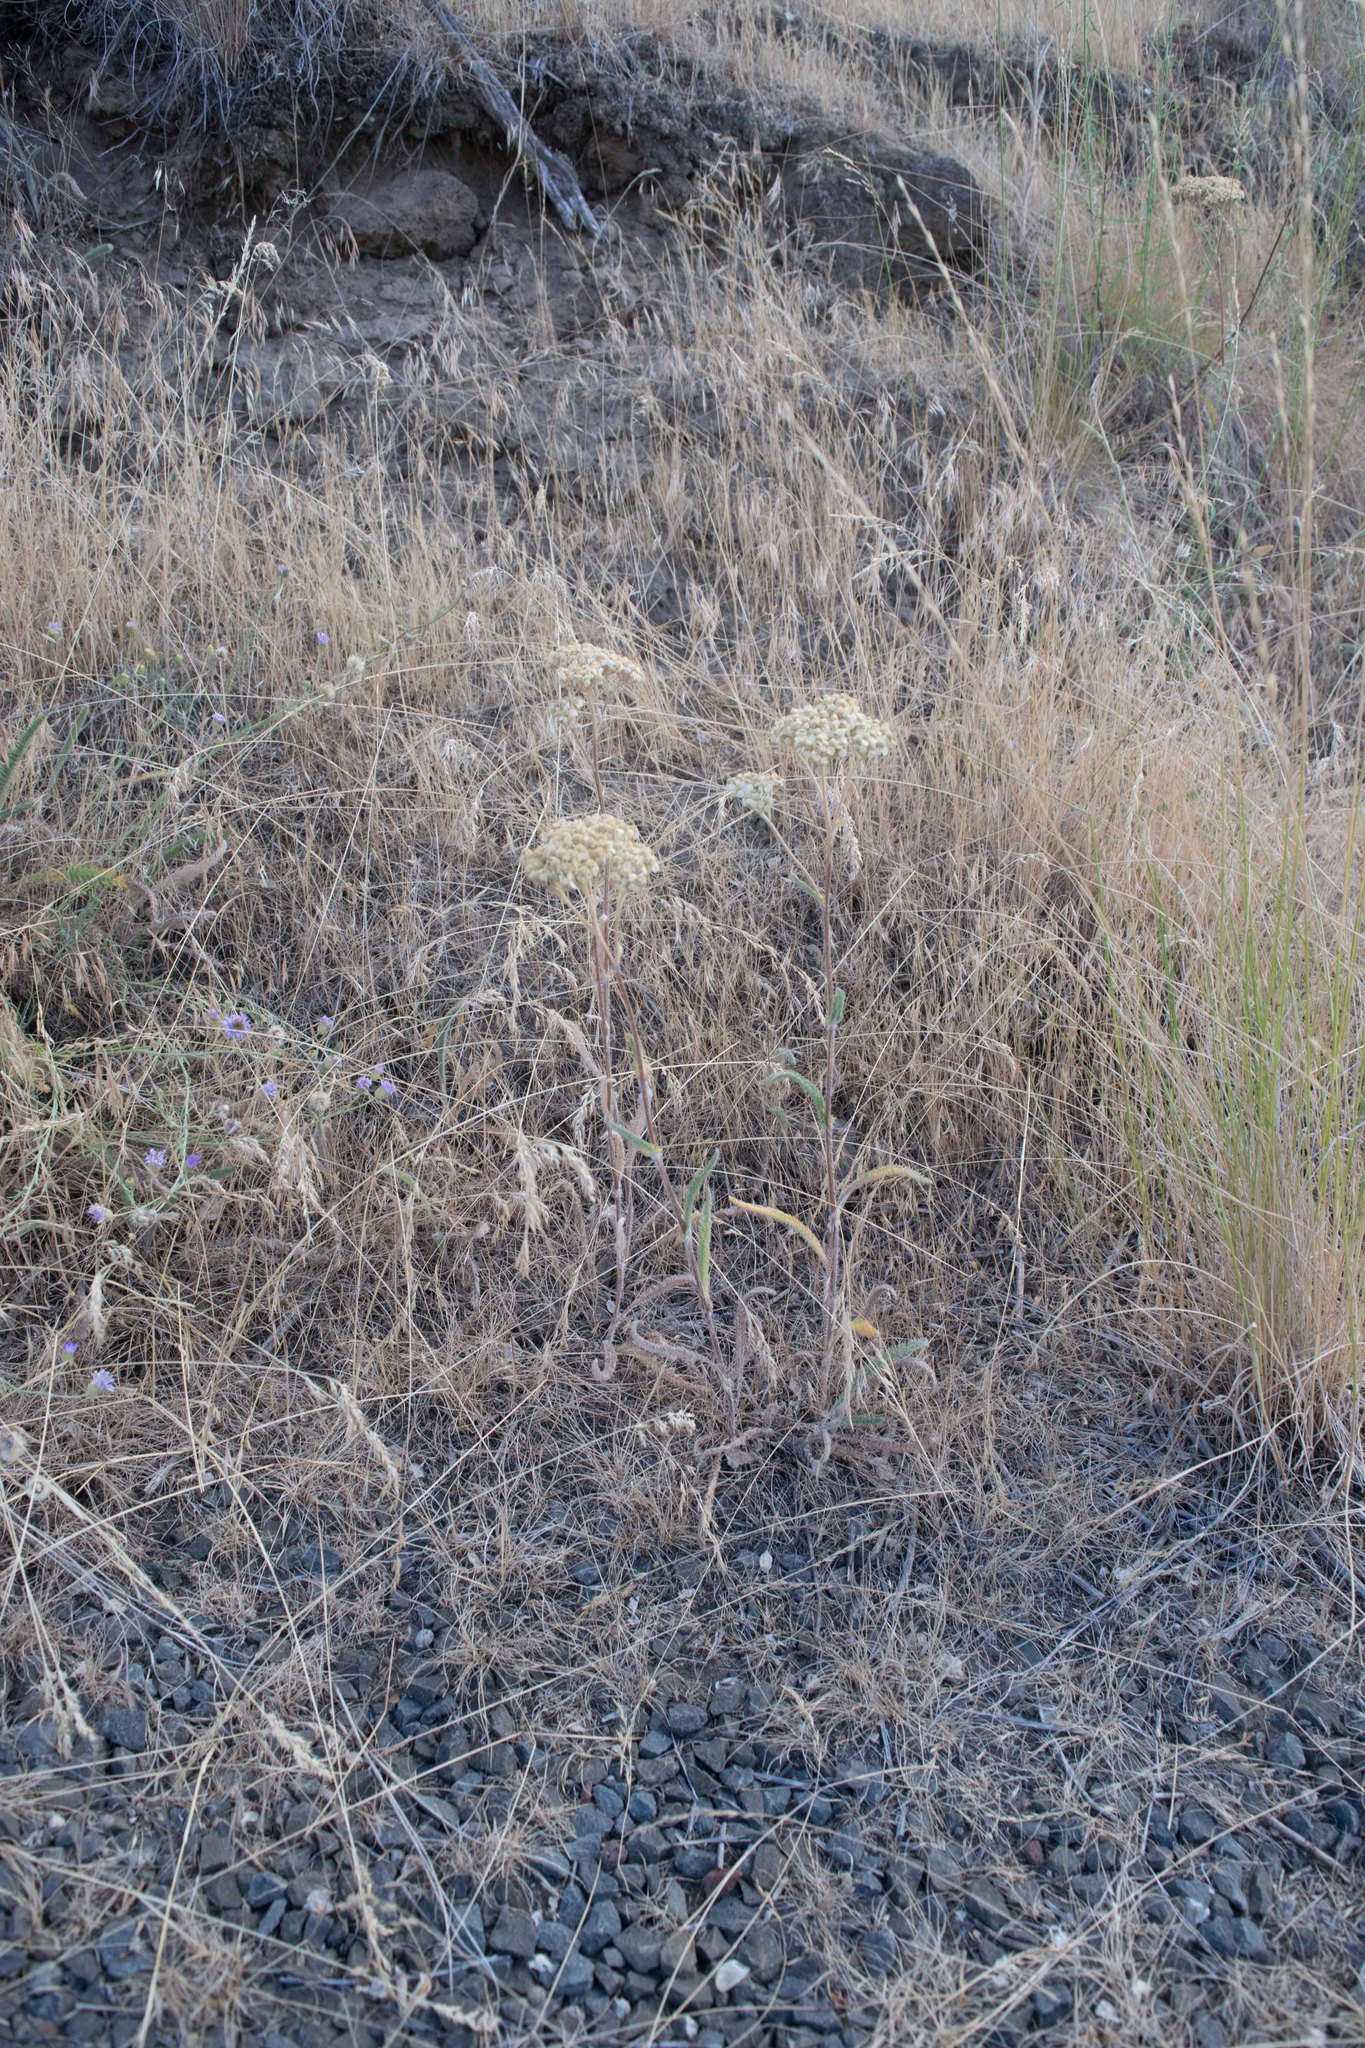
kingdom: Plantae
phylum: Tracheophyta
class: Magnoliopsida
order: Asterales
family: Asteraceae
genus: Achillea
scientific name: Achillea millefolium
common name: Yarrow
